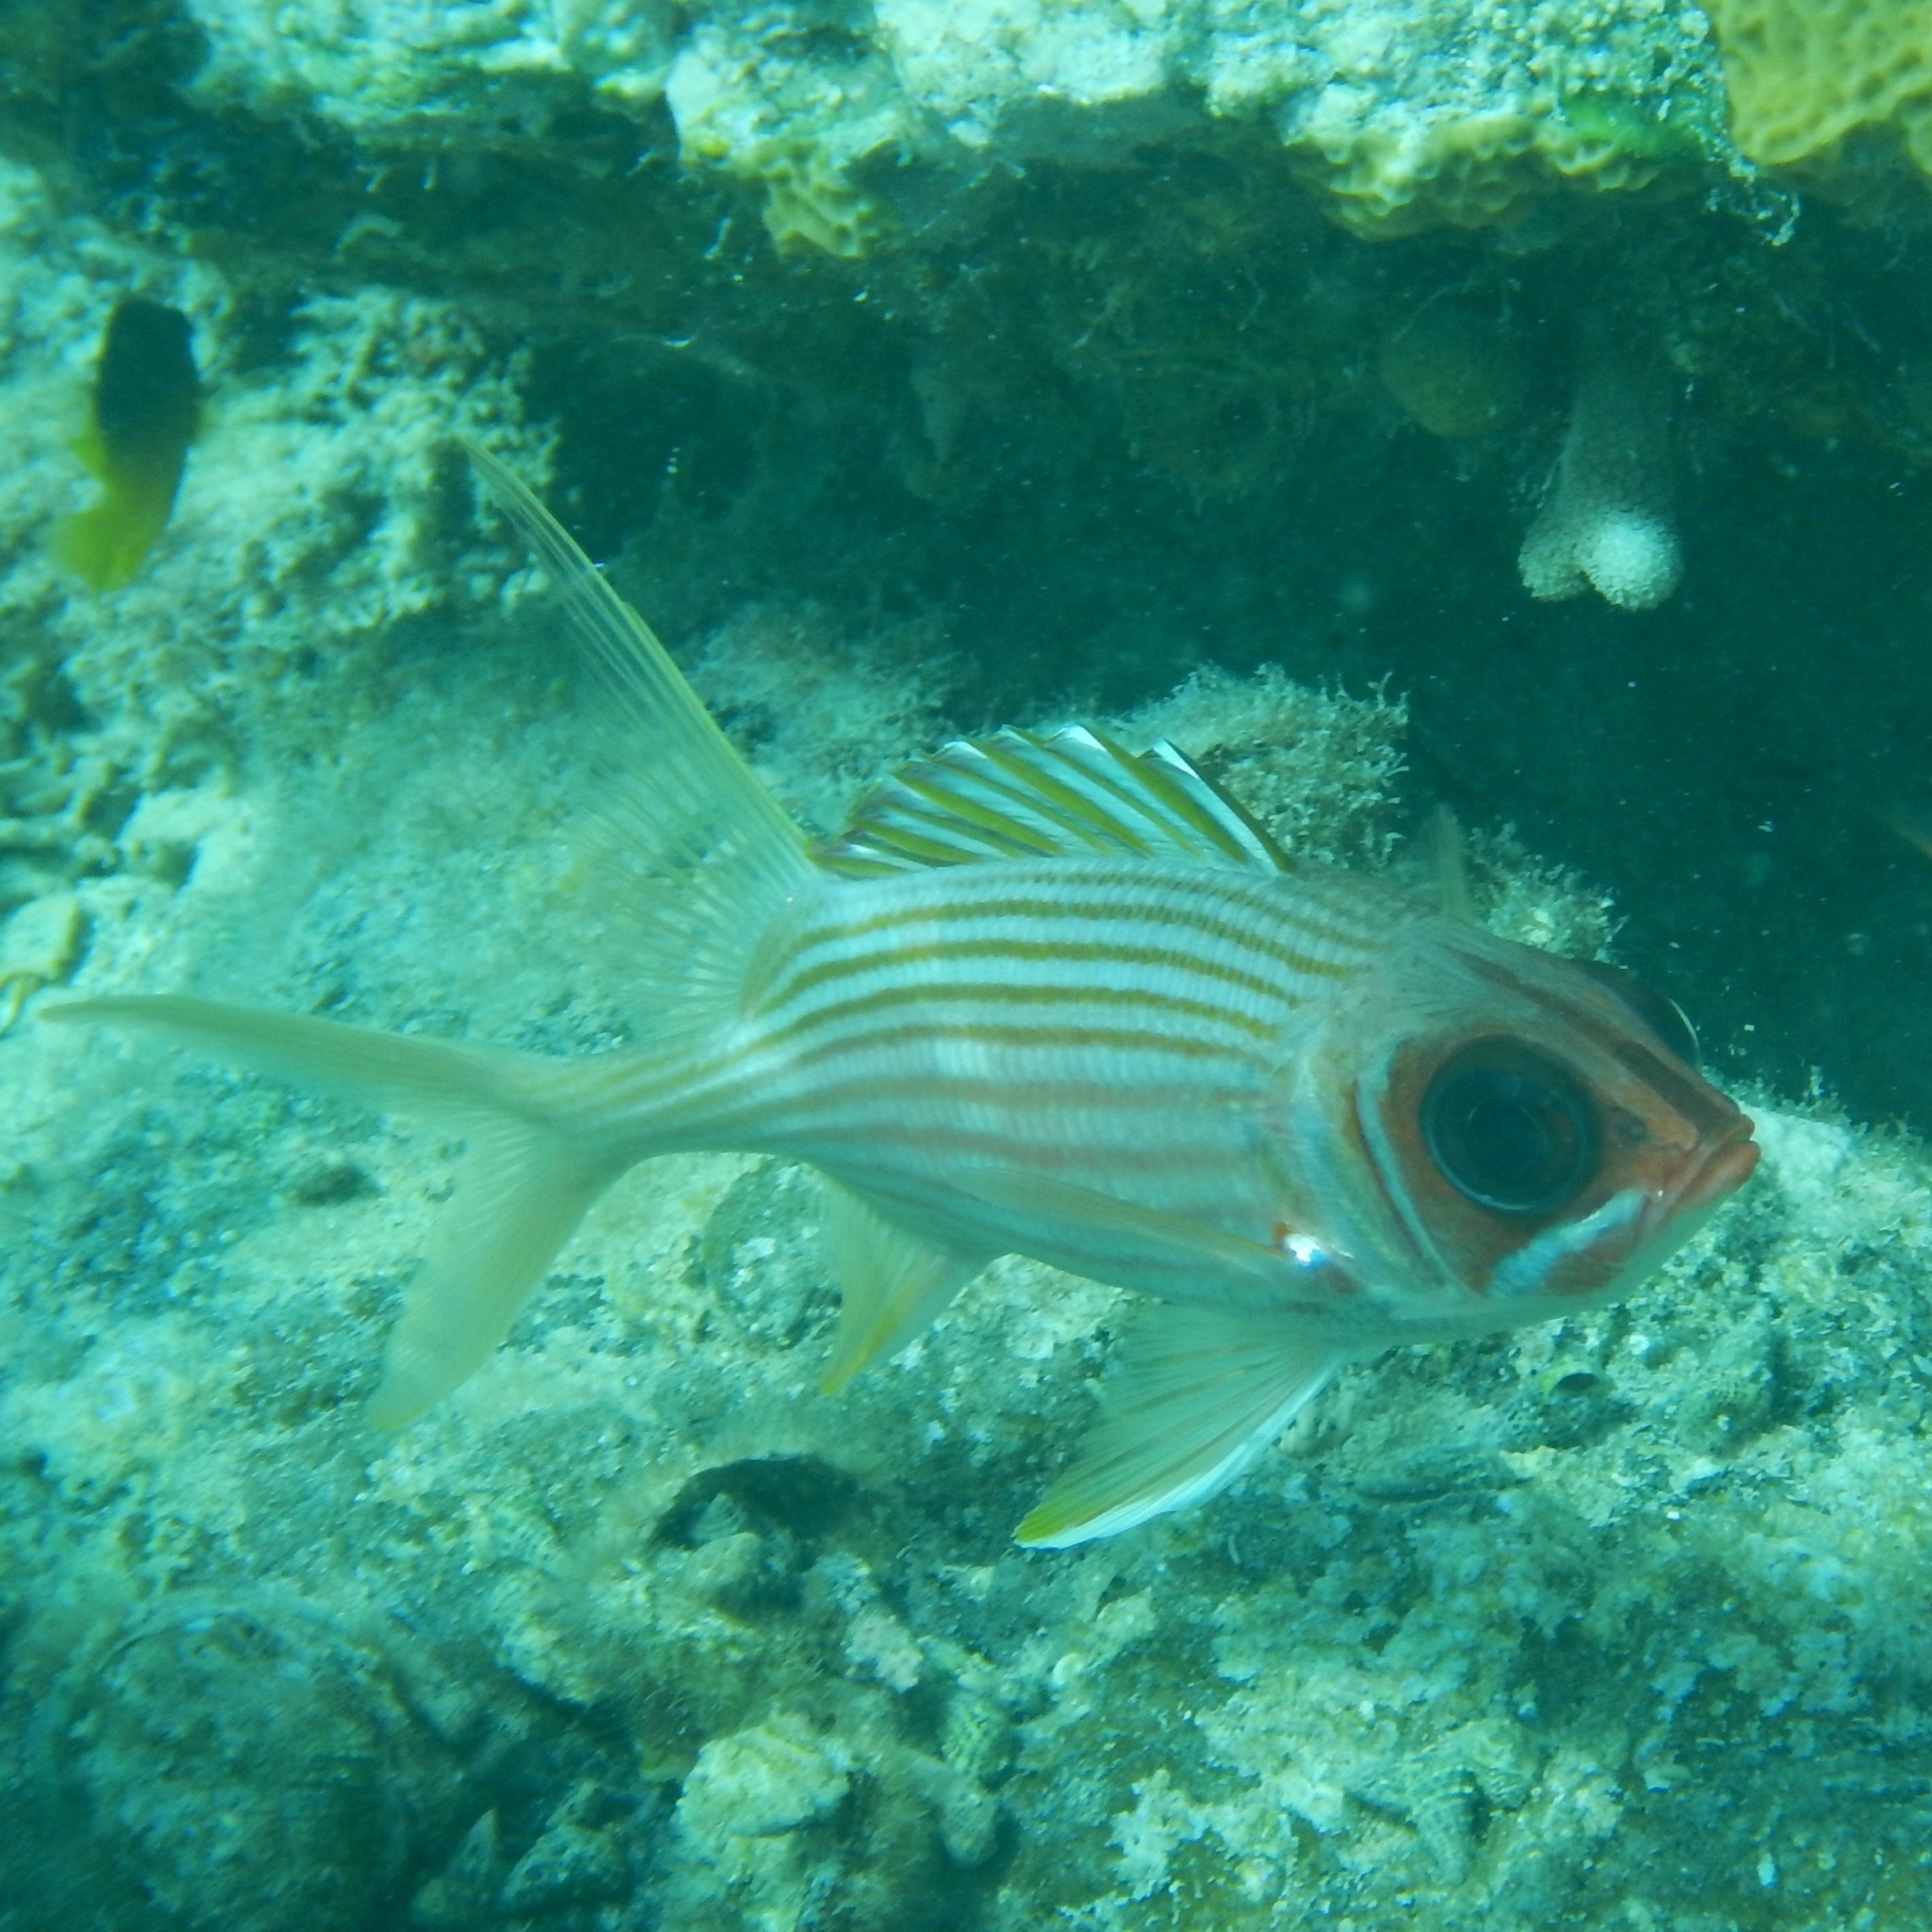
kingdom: Animalia
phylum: Chordata
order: Beryciformes
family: Holocentridae
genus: Holocentrus
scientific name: Holocentrus rufus
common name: Longspine squirrelfish
